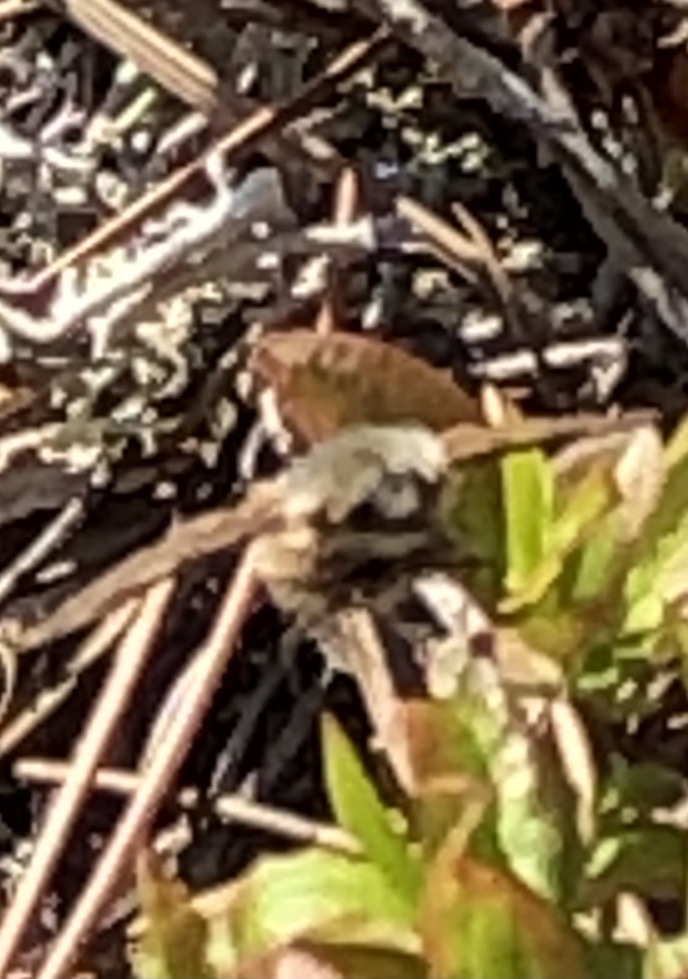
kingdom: Animalia
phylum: Arthropoda
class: Insecta
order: Diptera
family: Bombyliidae
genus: Bombylius
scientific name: Bombylius major
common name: Bee fly
